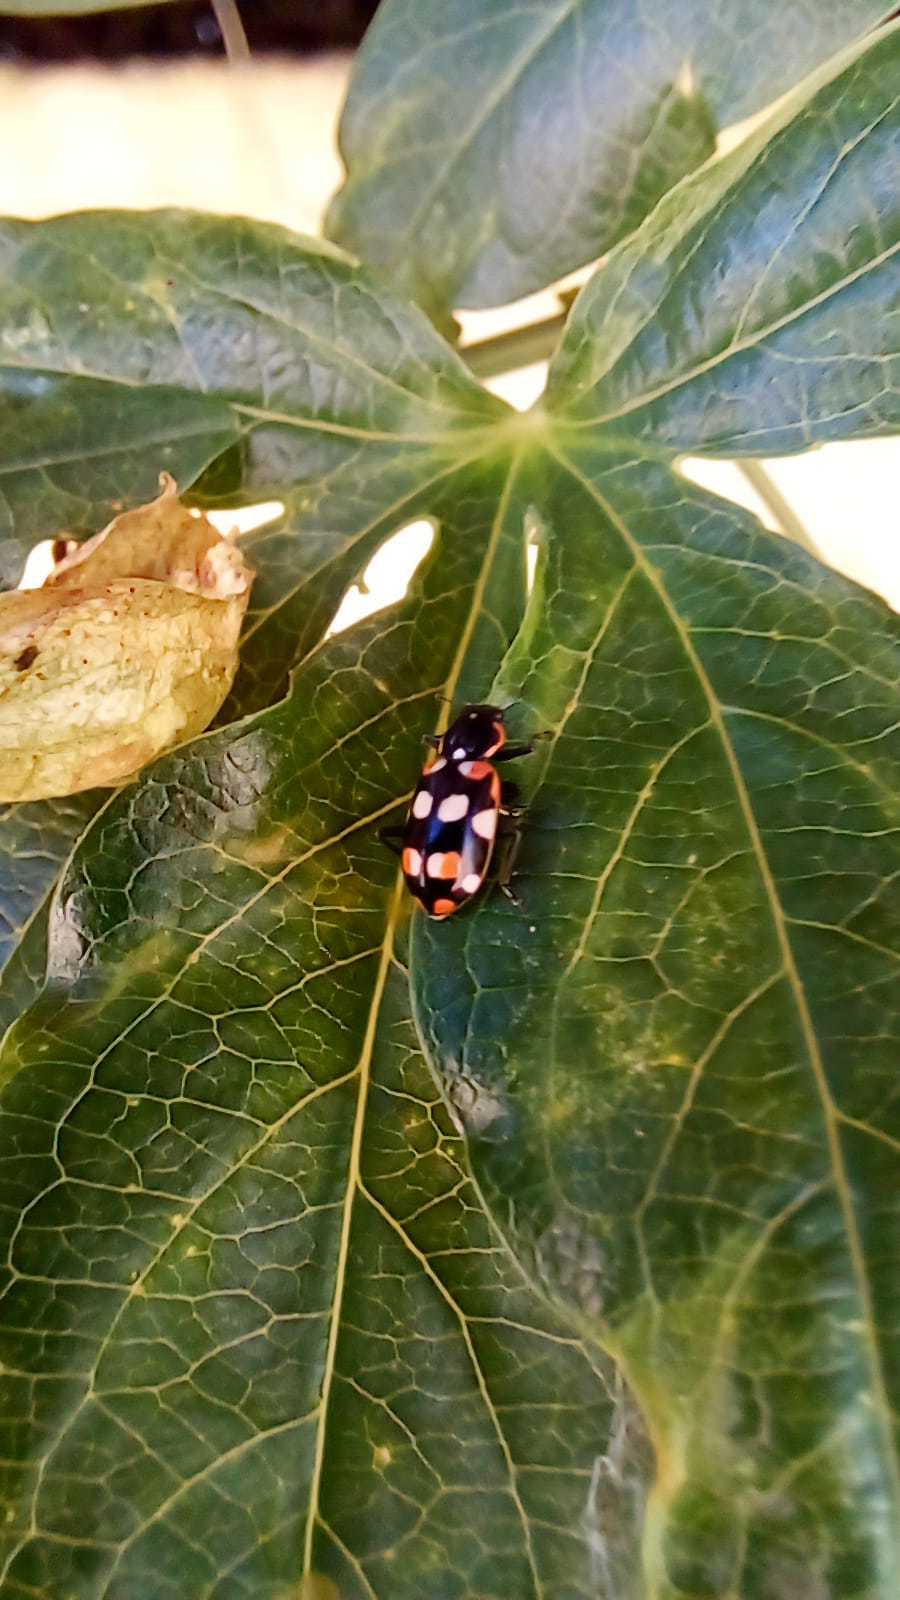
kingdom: Animalia
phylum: Arthropoda
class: Insecta
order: Coleoptera
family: Coccinellidae
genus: Eriopis
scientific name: Eriopis connexa
